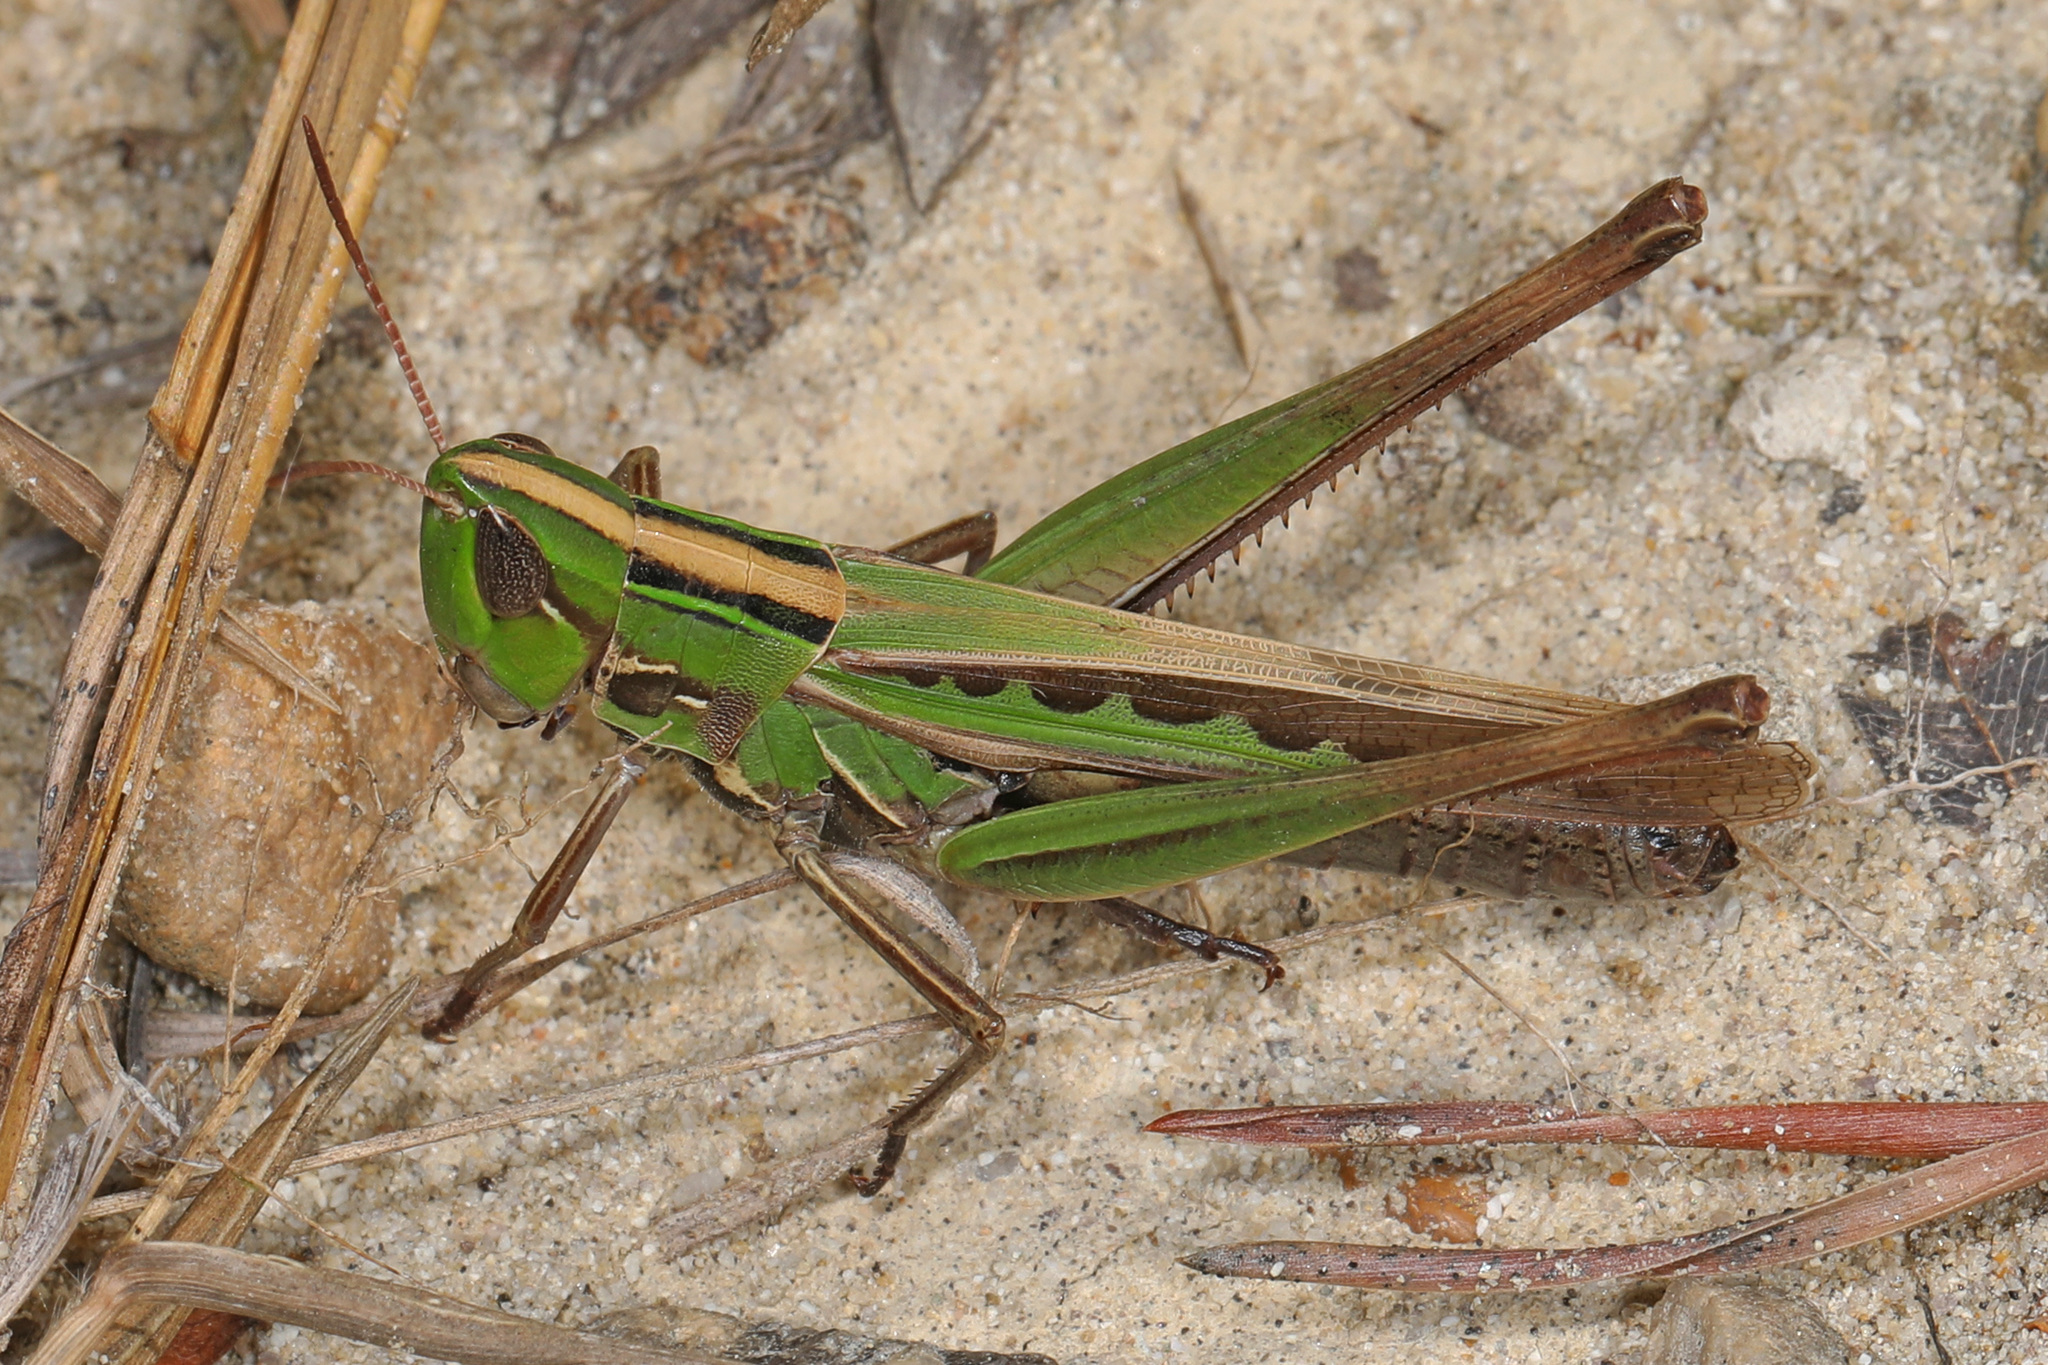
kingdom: Animalia
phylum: Arthropoda
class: Insecta
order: Orthoptera
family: Acrididae
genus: Syrbula
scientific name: Syrbula admirabilis
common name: Handsome grasshopper
